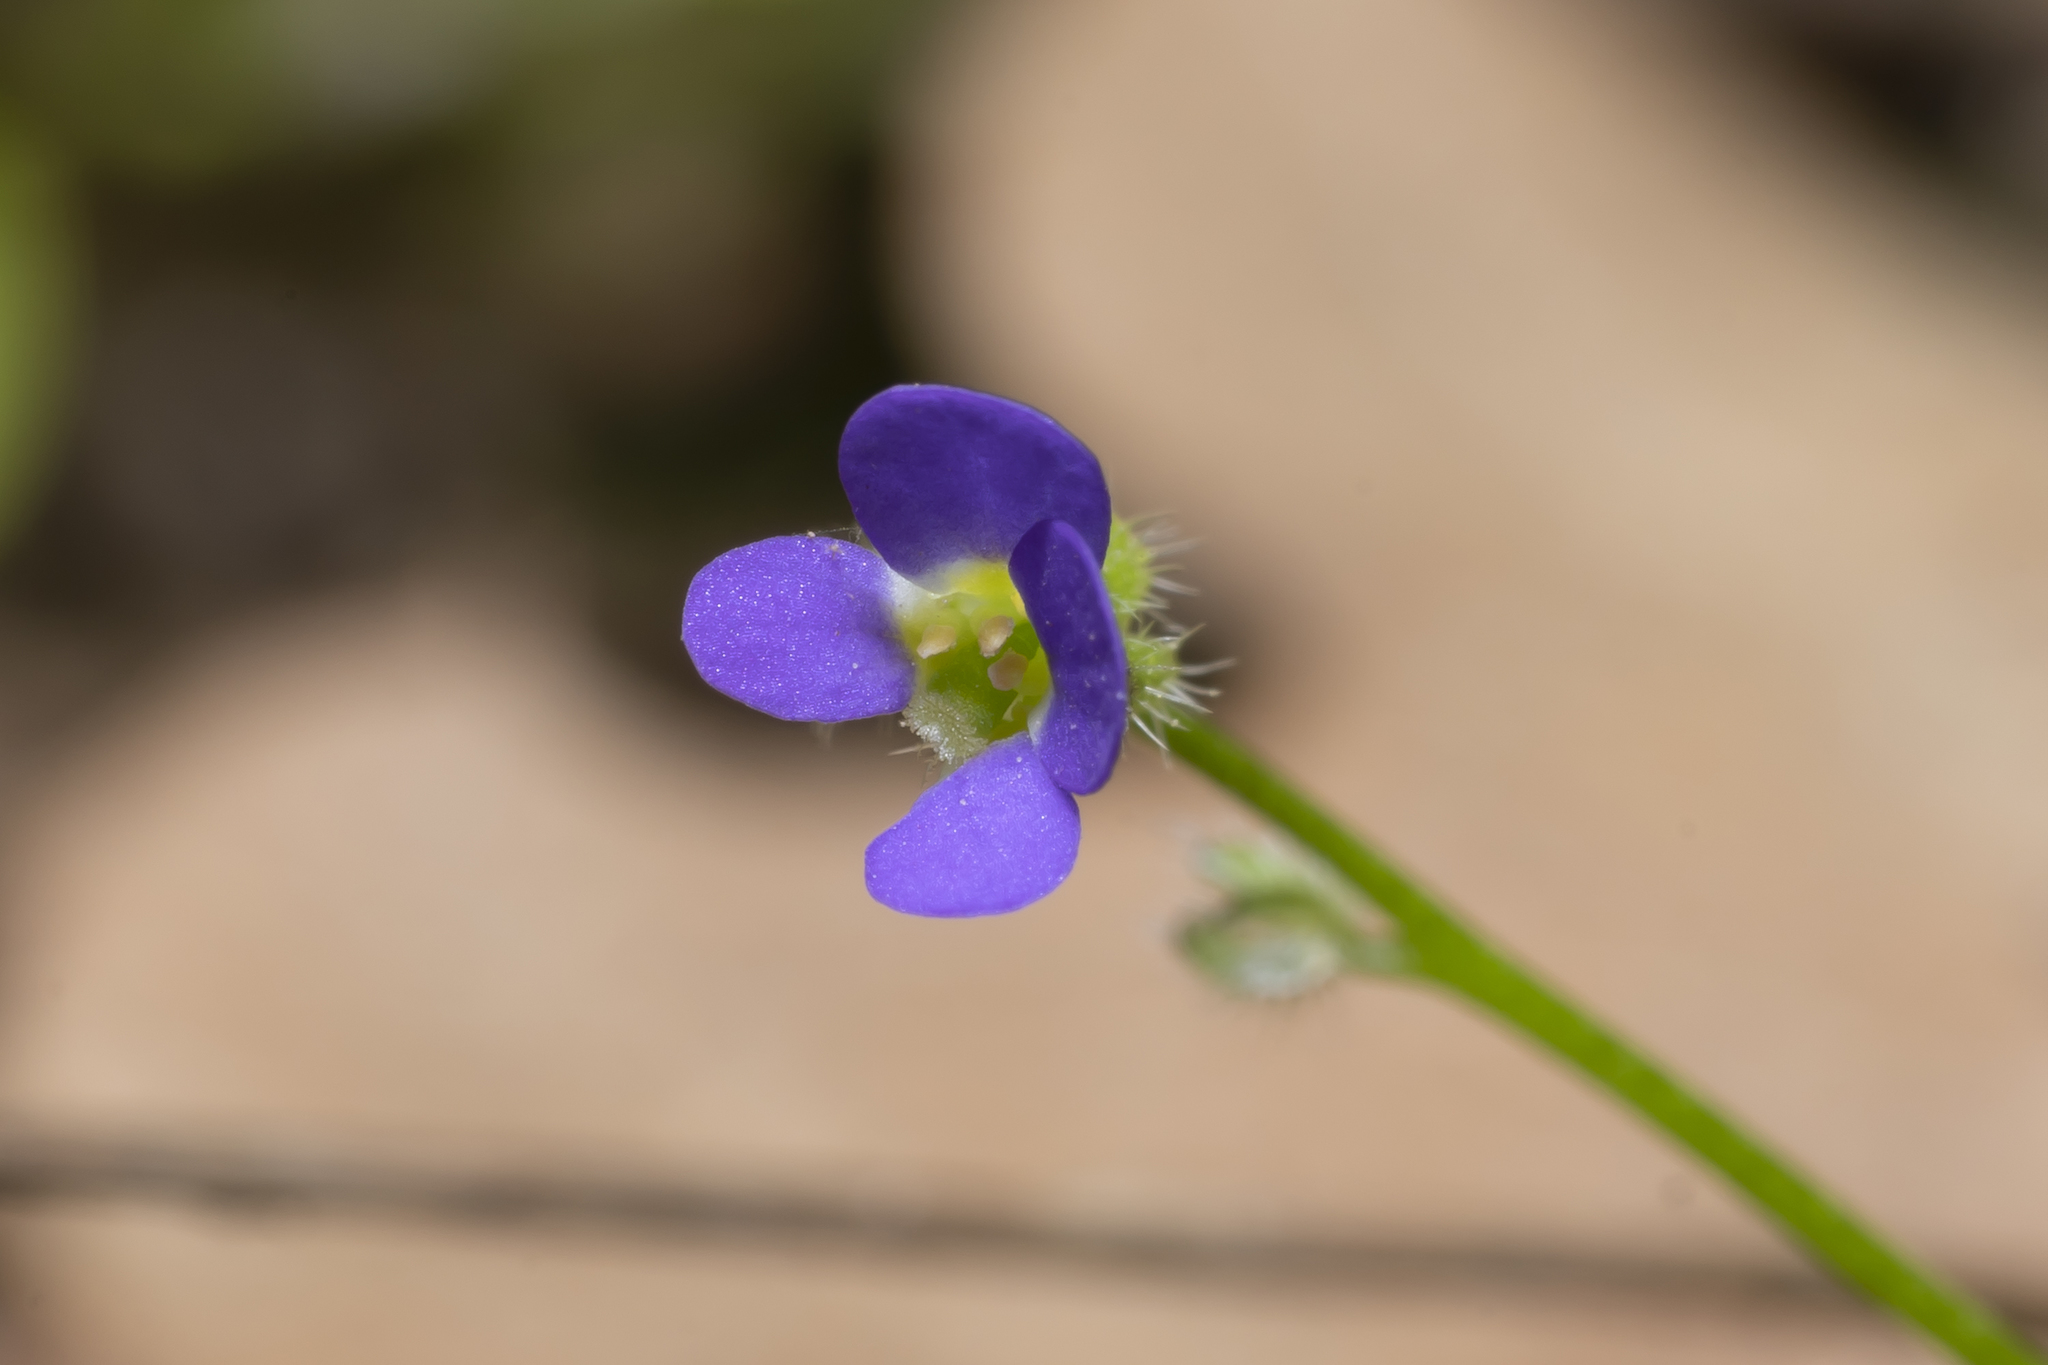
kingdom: Plantae
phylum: Tracheophyta
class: Magnoliopsida
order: Brassicales
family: Brassicaceae
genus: Arabis
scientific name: Arabis verna
